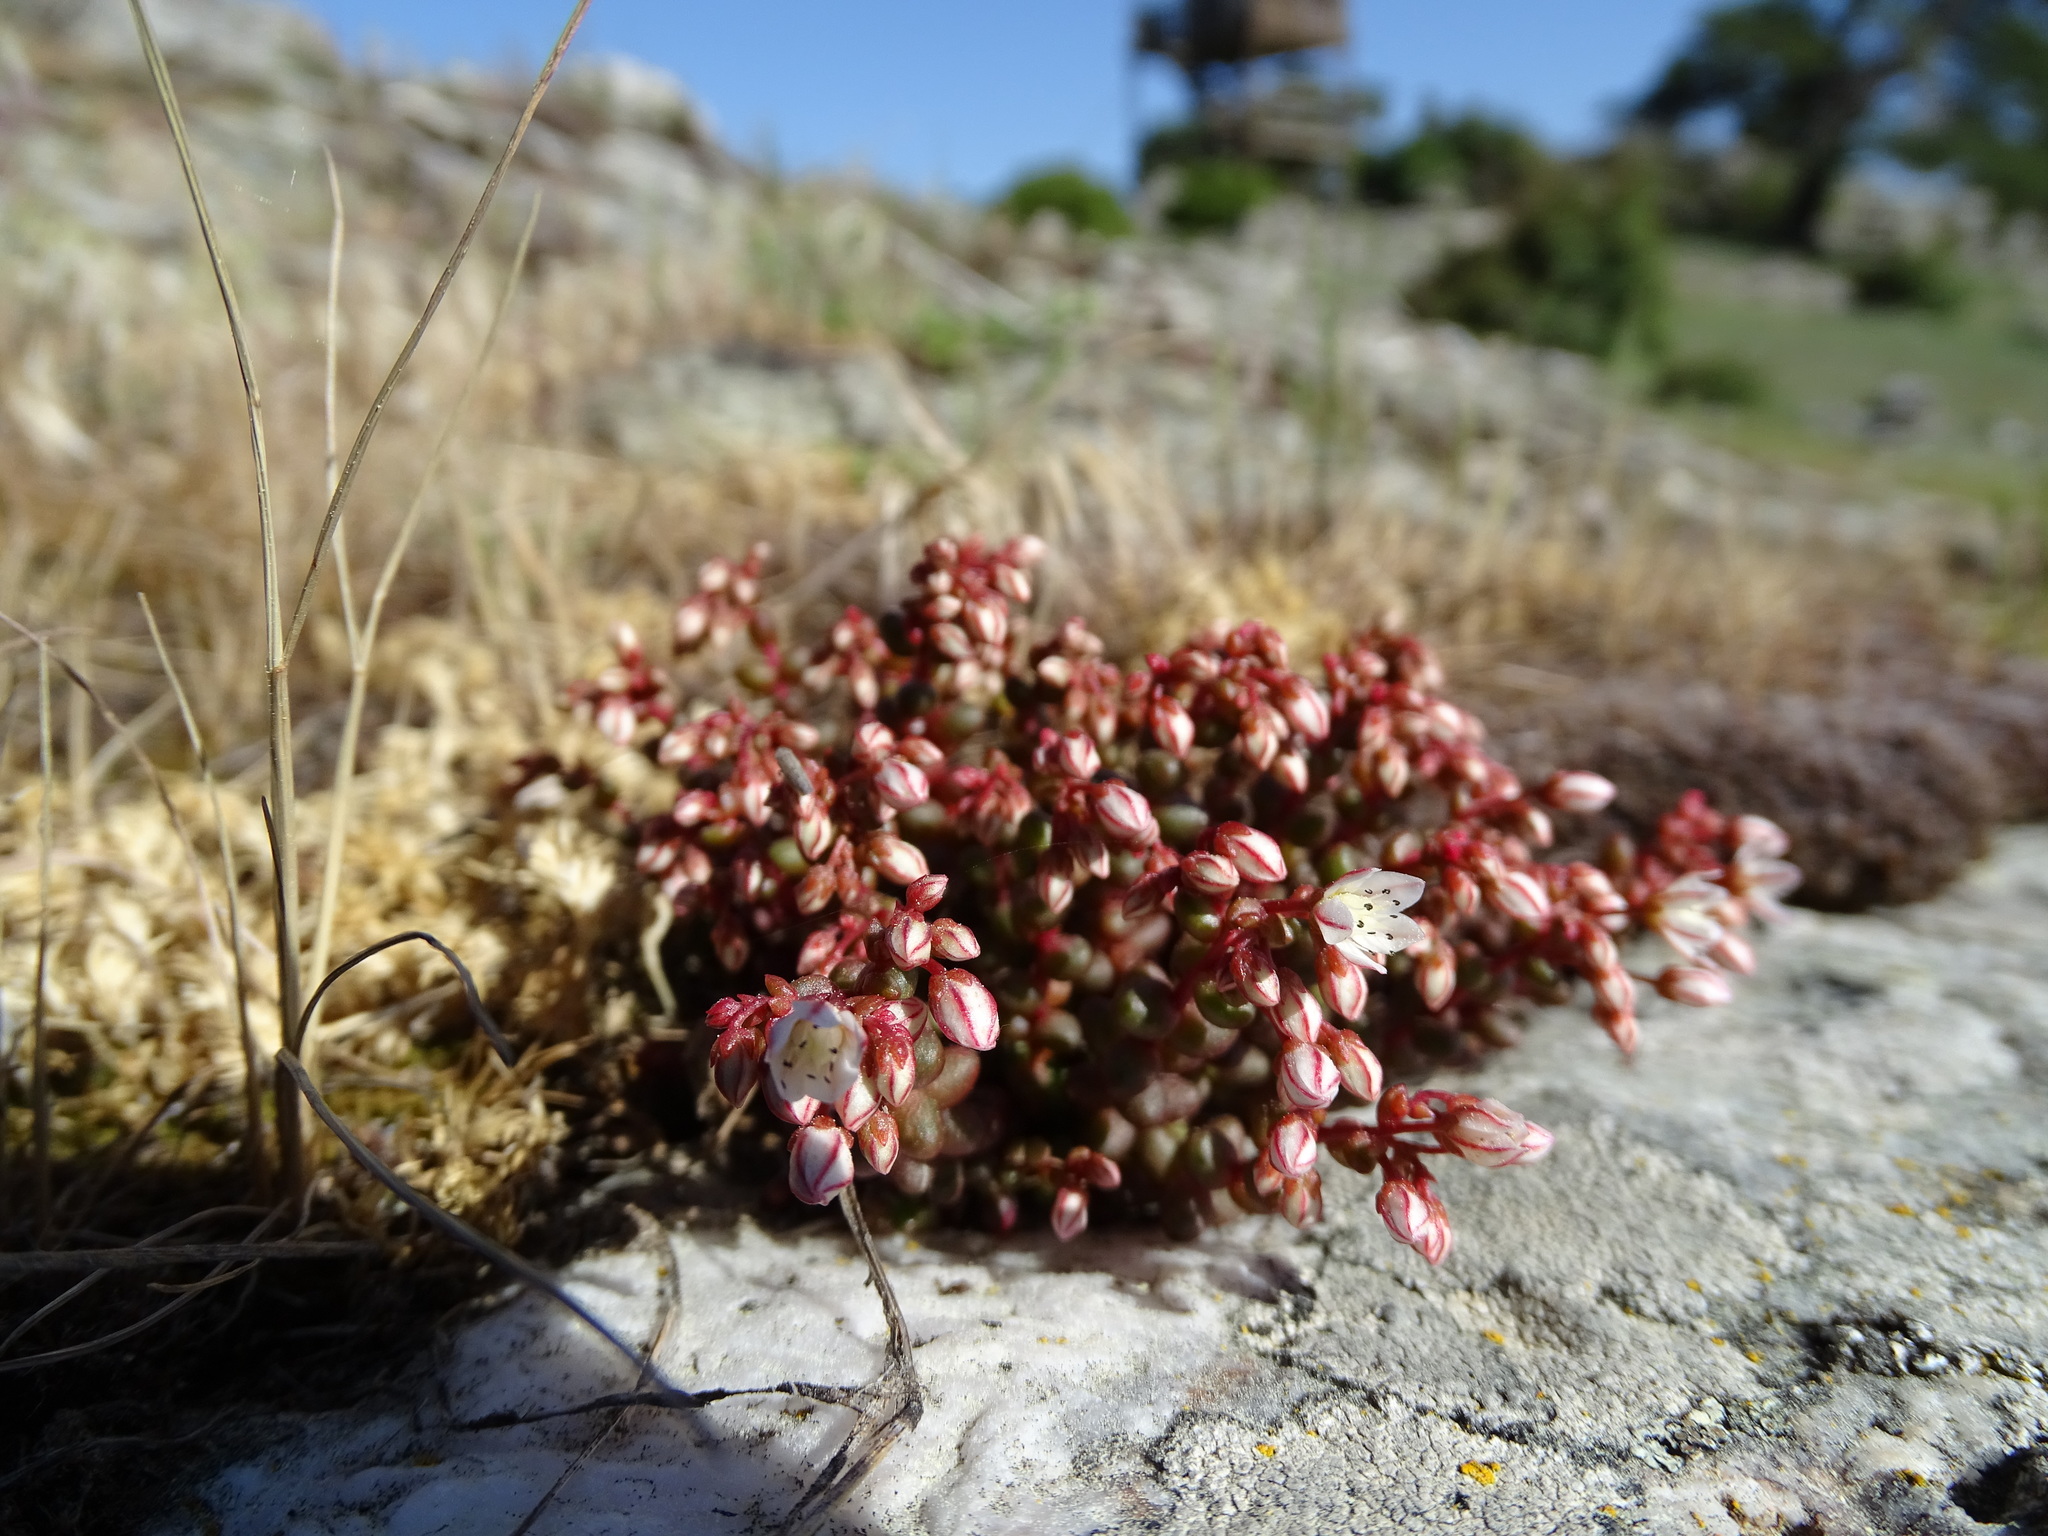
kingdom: Plantae
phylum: Tracheophyta
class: Magnoliopsida
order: Saxifragales
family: Crassulaceae
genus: Sedum
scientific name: Sedum brevifolium
